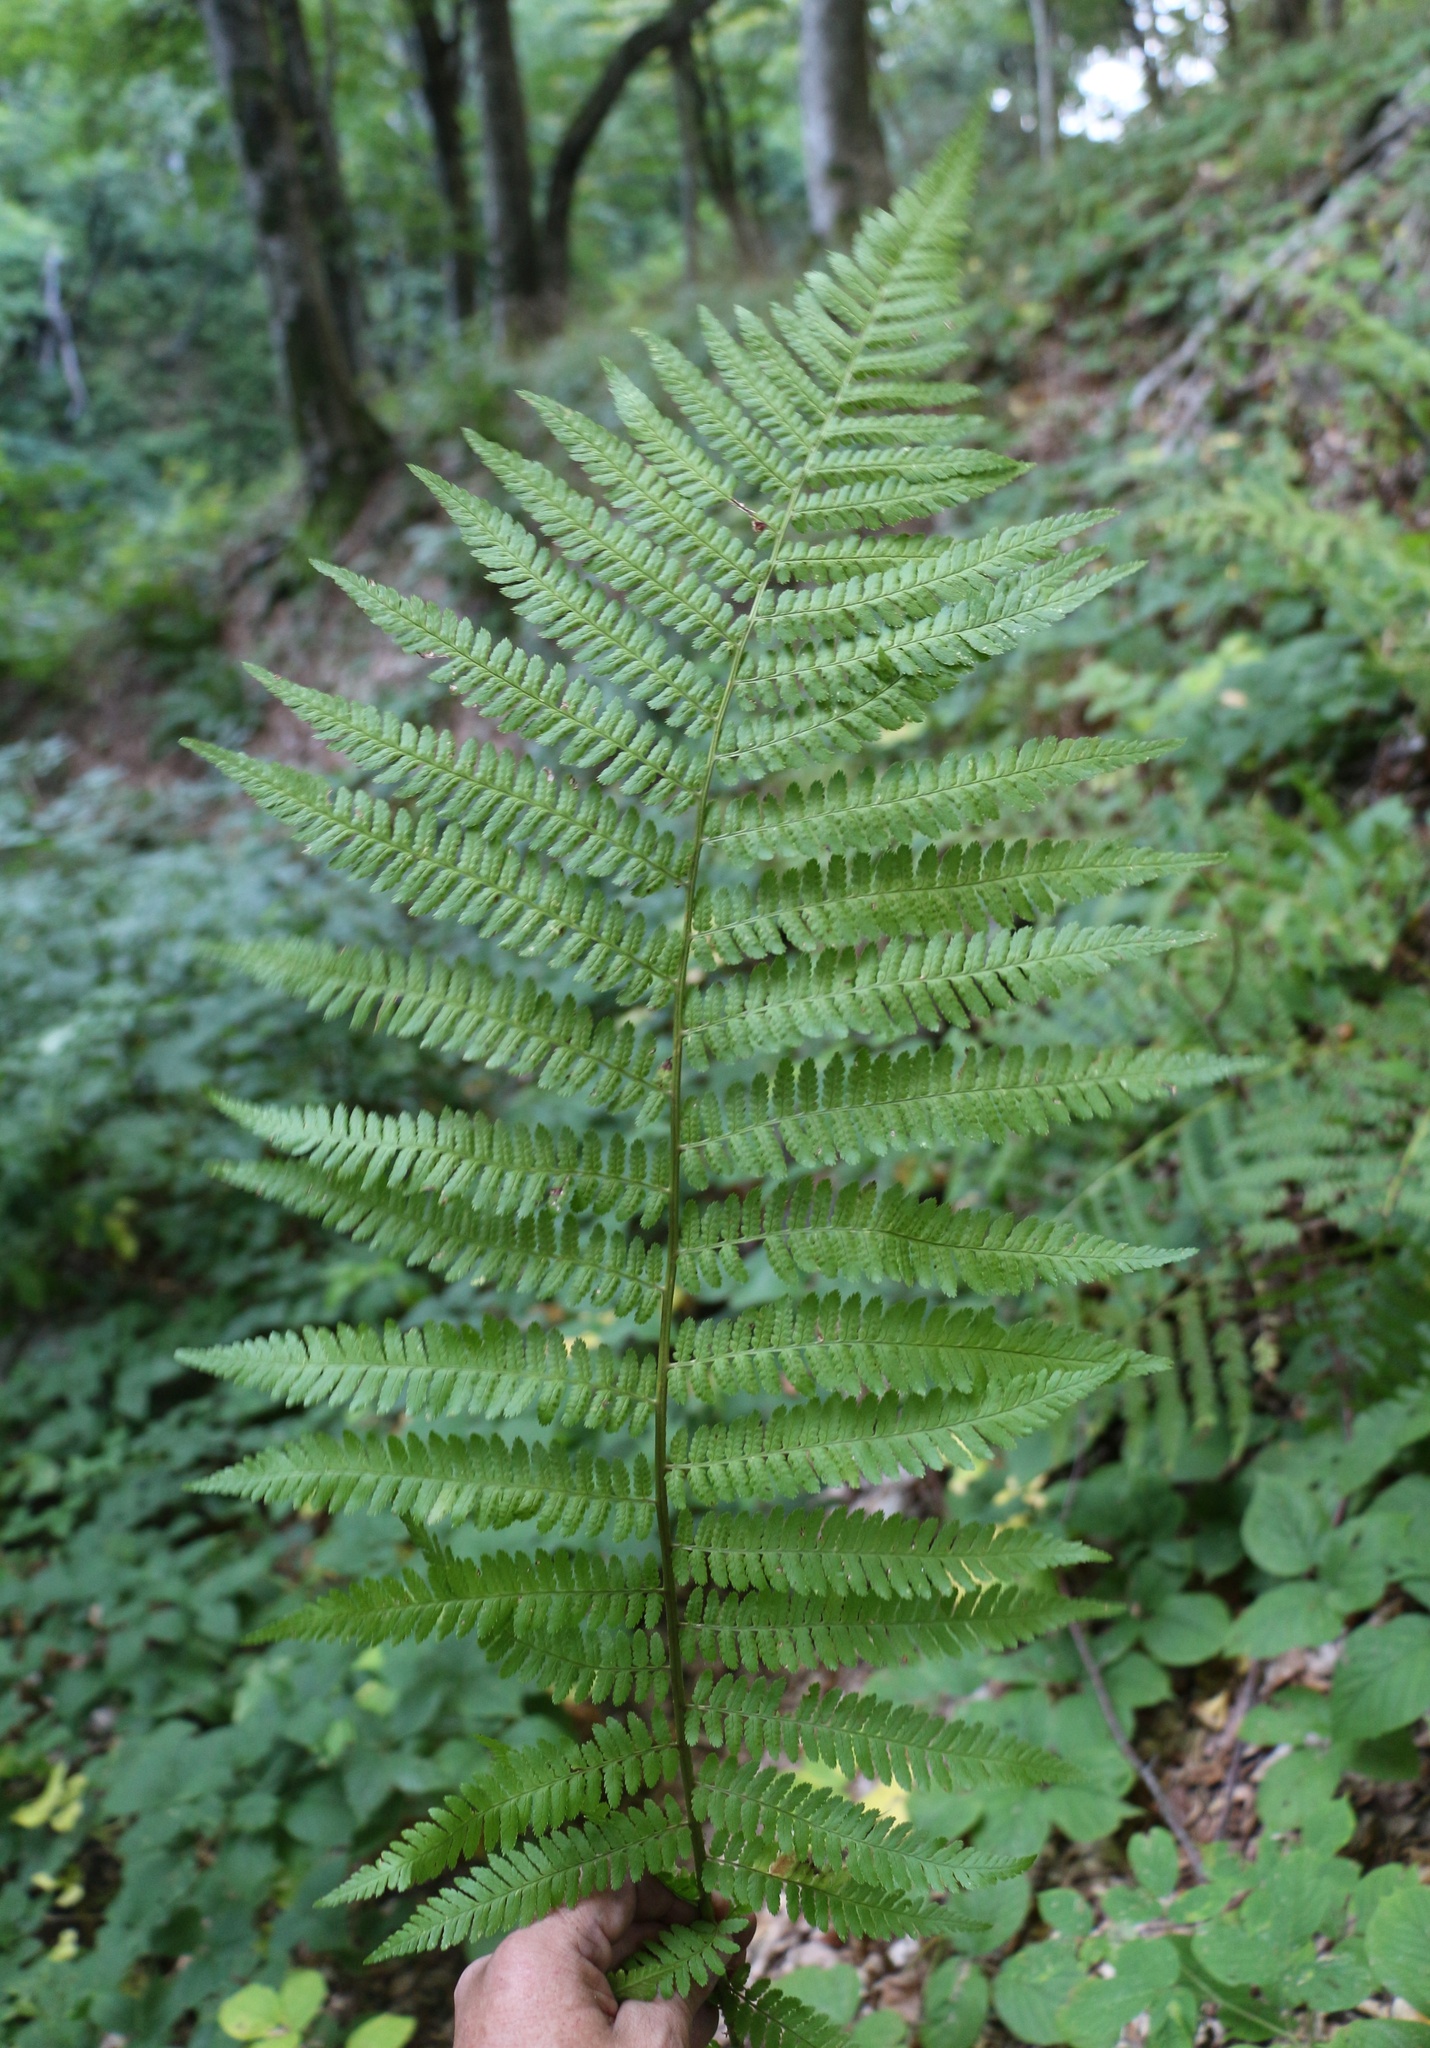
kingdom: Plantae
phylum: Tracheophyta
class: Polypodiopsida
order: Polypodiales
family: Dryopteridaceae
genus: Dryopteris
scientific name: Dryopteris filix-mas
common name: Male fern
